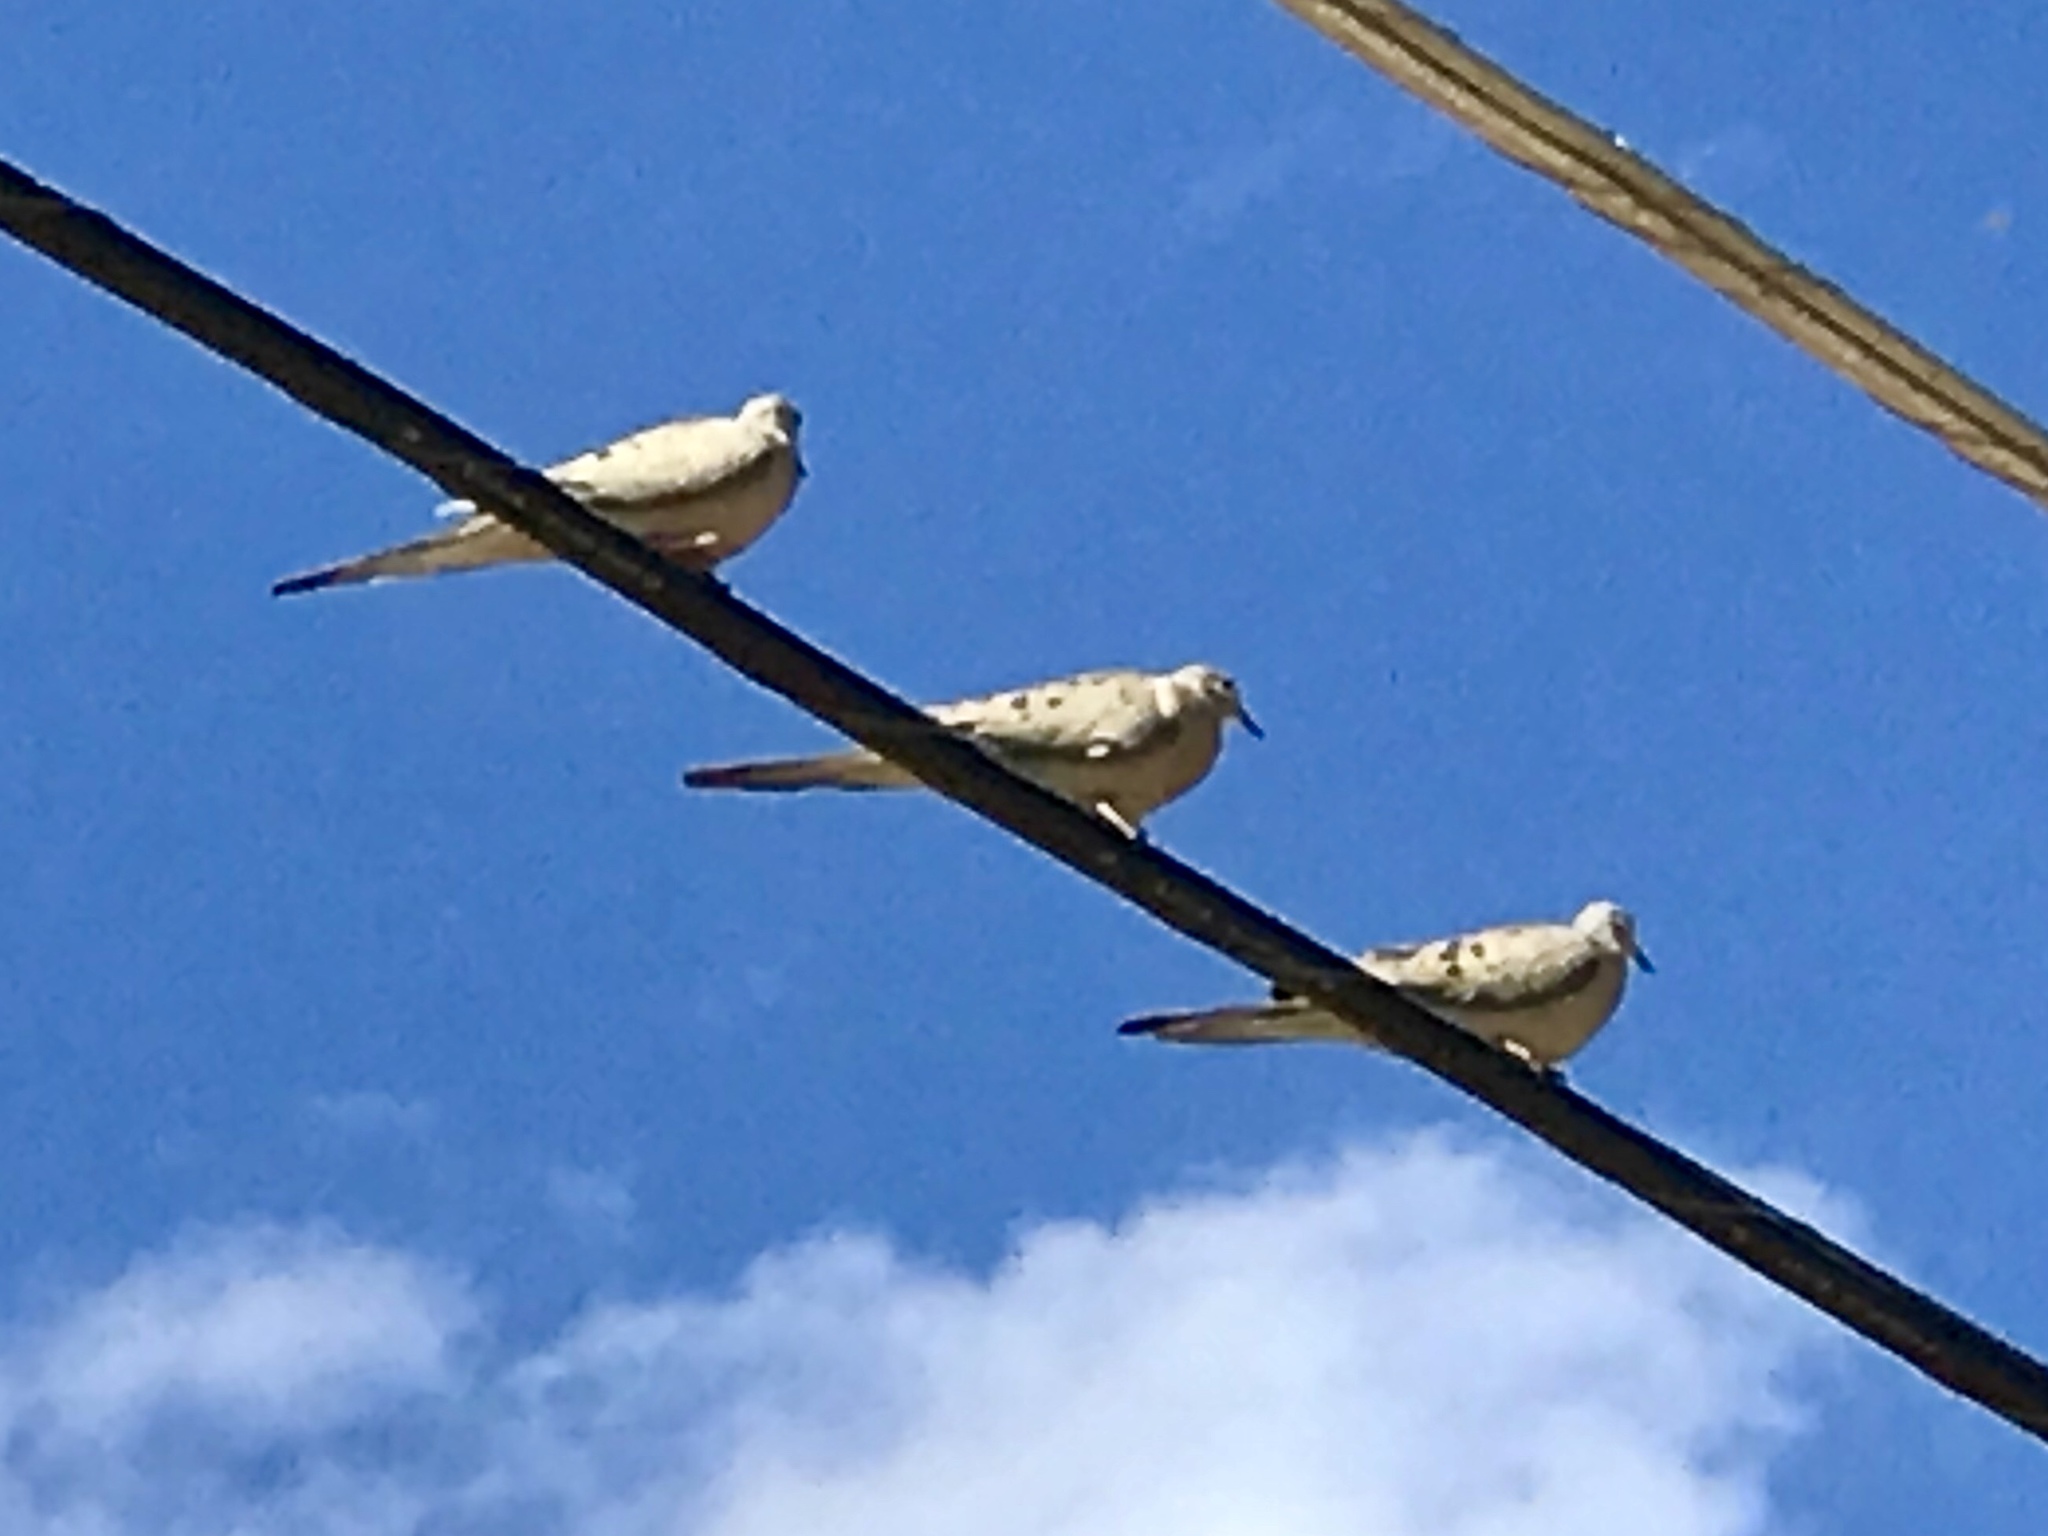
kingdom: Animalia
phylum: Chordata
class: Aves
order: Columbiformes
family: Columbidae
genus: Zenaida
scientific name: Zenaida macroura
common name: Mourning dove
